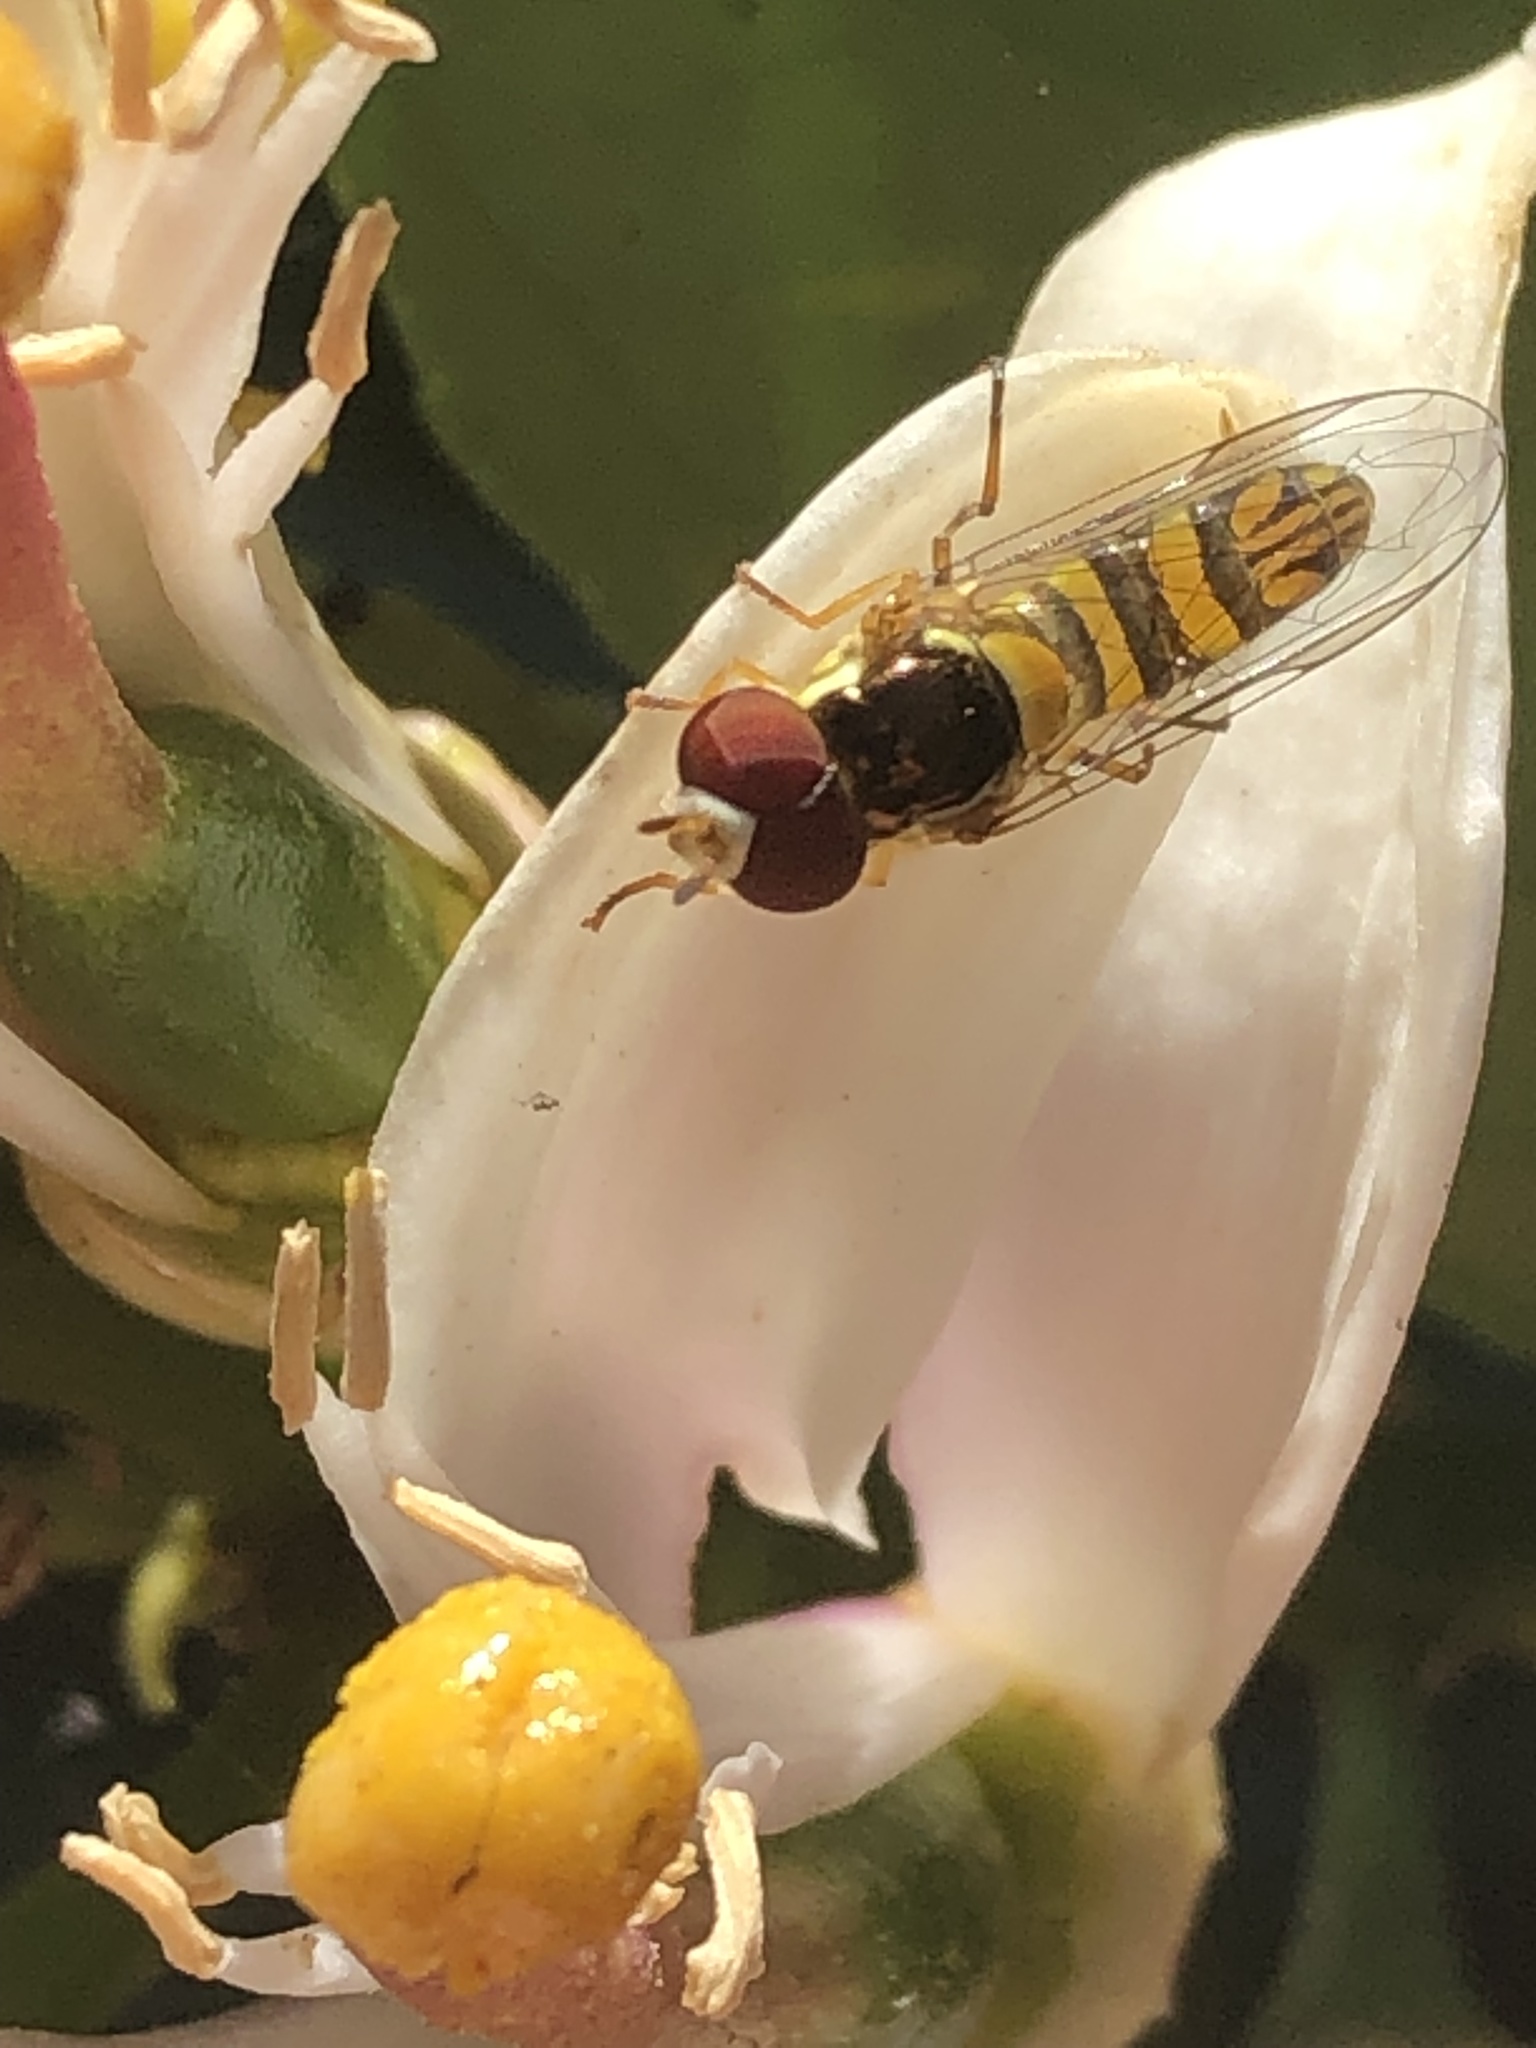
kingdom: Animalia
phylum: Arthropoda
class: Insecta
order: Diptera
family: Syrphidae
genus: Allograpta
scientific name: Allograpta obliqua
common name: Common oblique syrphid
